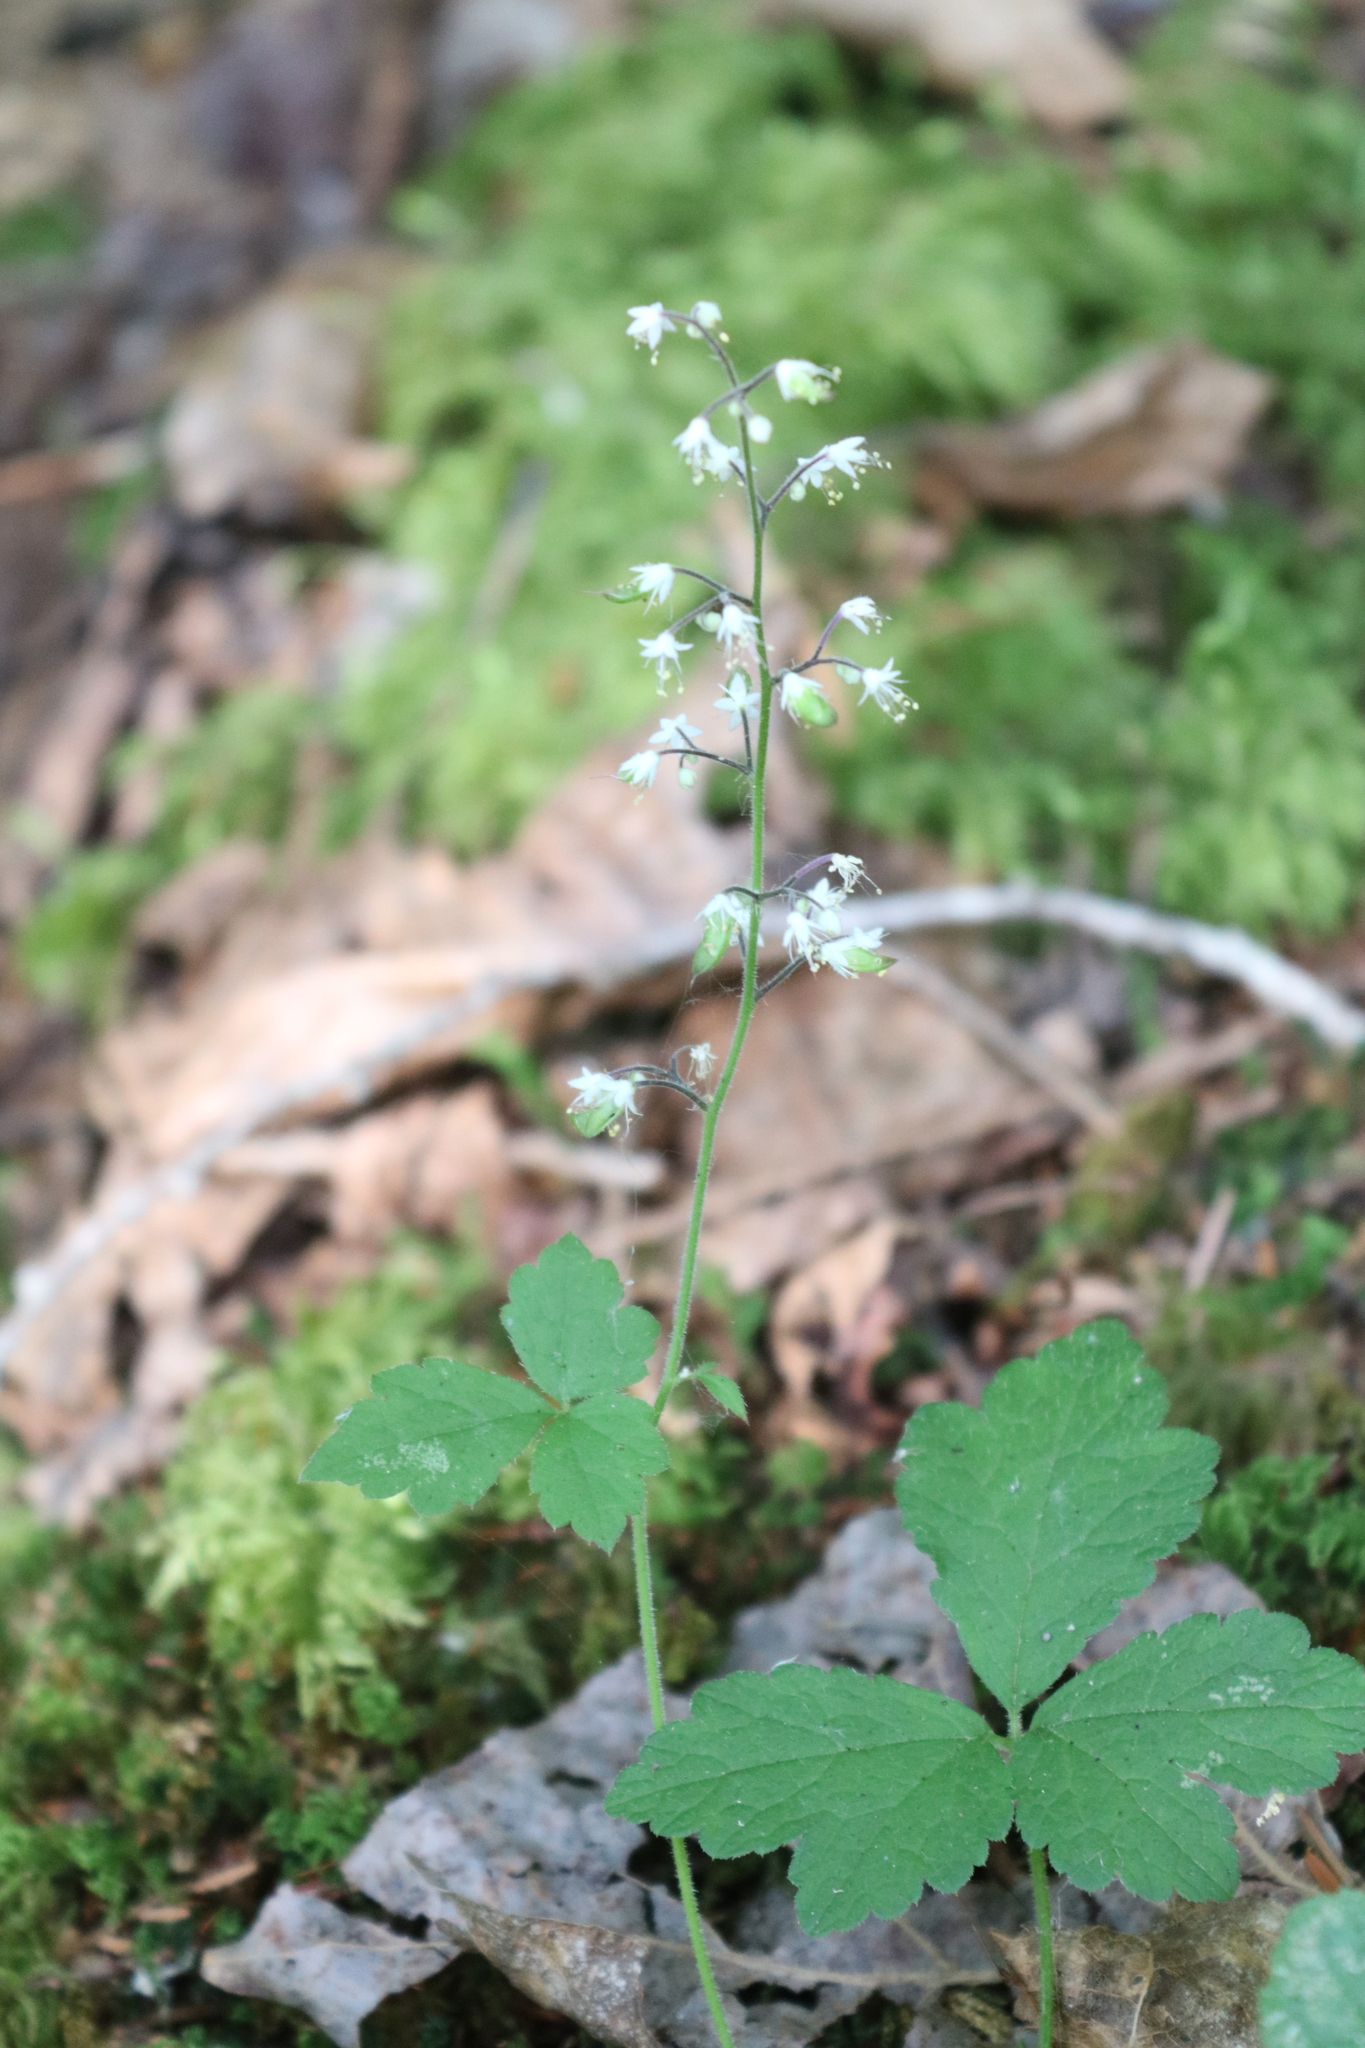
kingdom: Plantae
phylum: Tracheophyta
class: Magnoliopsida
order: Saxifragales
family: Saxifragaceae
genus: Tiarella
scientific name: Tiarella trifoliata
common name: Sugar-scoop
